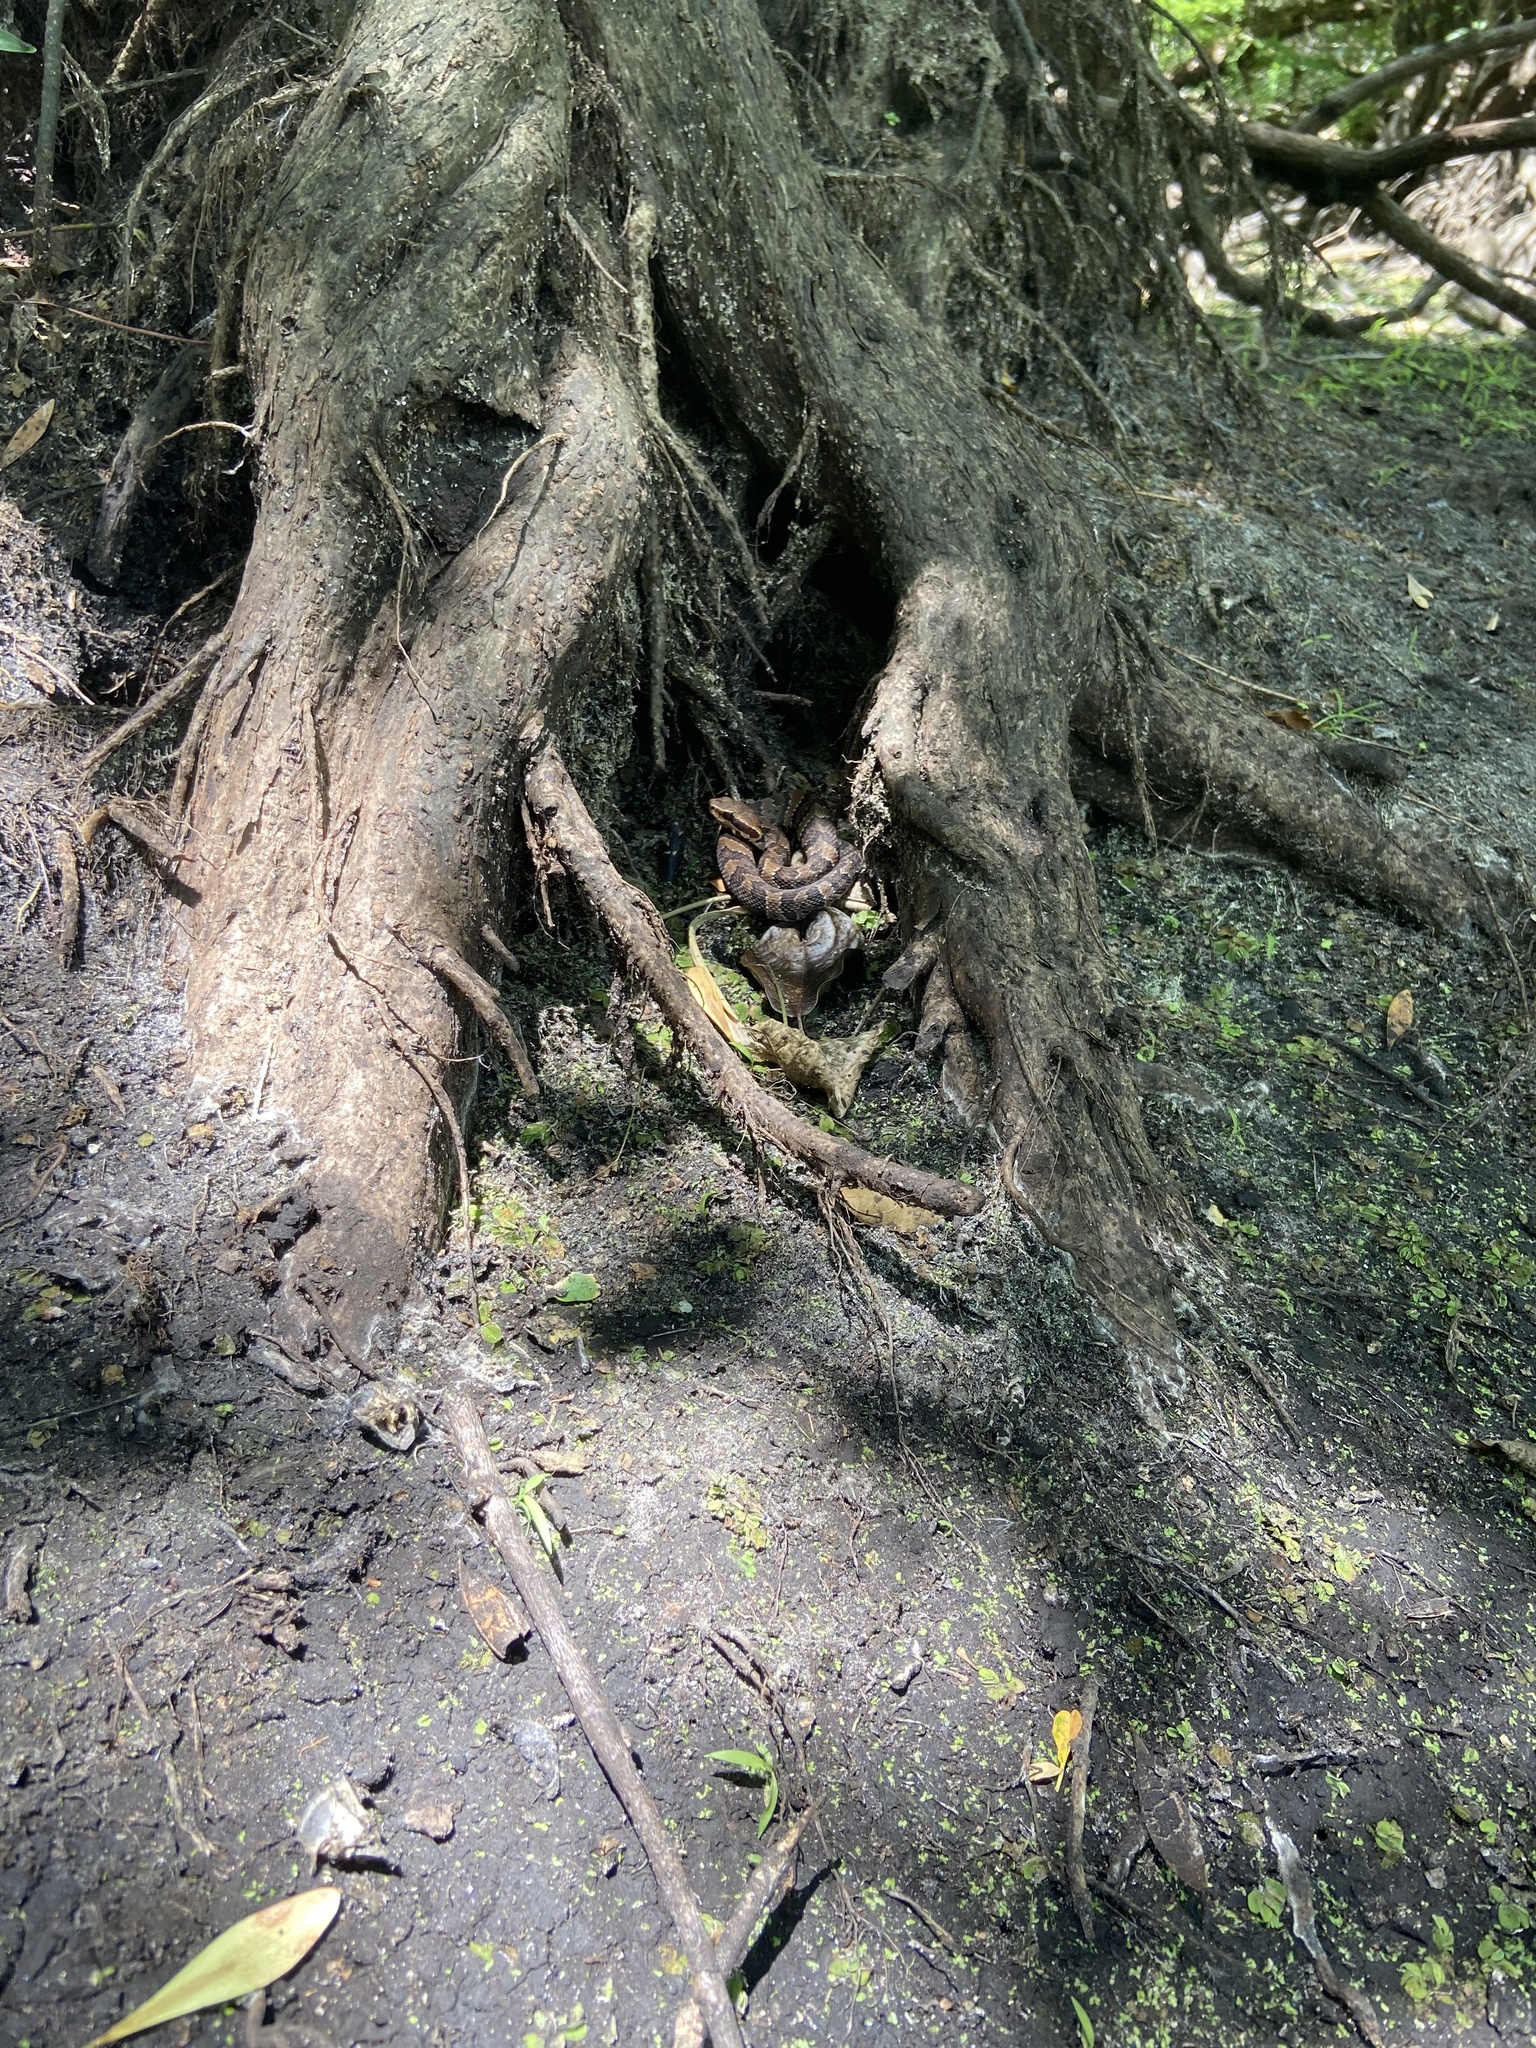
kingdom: Animalia
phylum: Chordata
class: Squamata
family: Viperidae
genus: Agkistrodon
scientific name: Agkistrodon conanti
